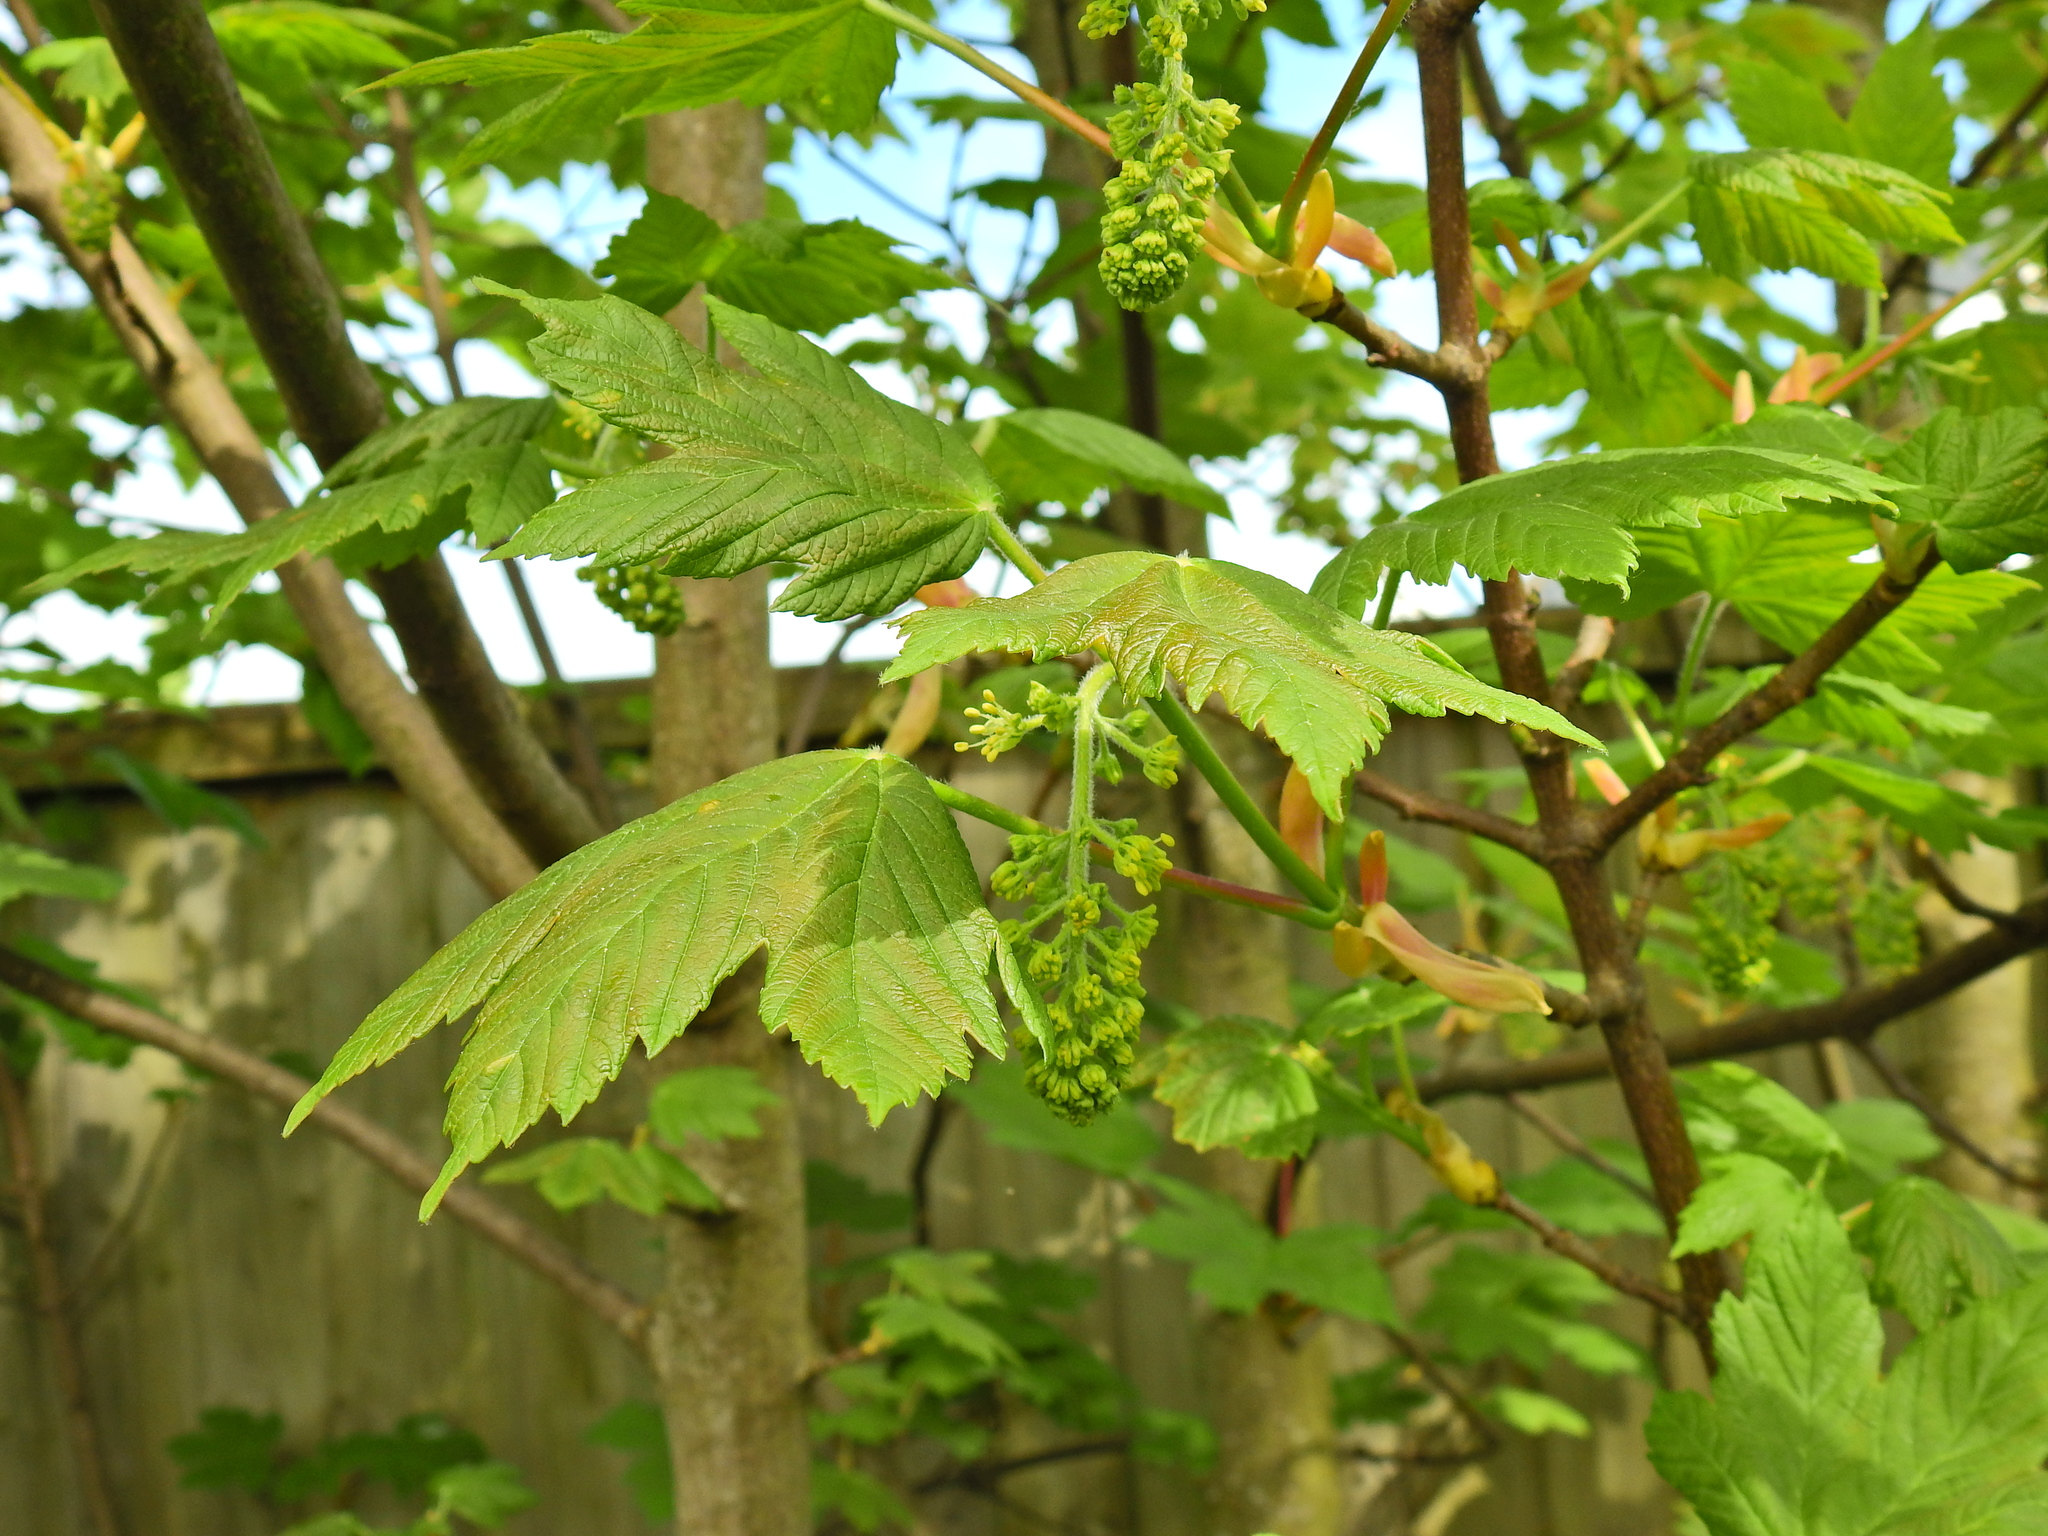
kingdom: Plantae
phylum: Tracheophyta
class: Magnoliopsida
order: Sapindales
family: Sapindaceae
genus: Acer
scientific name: Acer pseudoplatanus
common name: Sycamore
